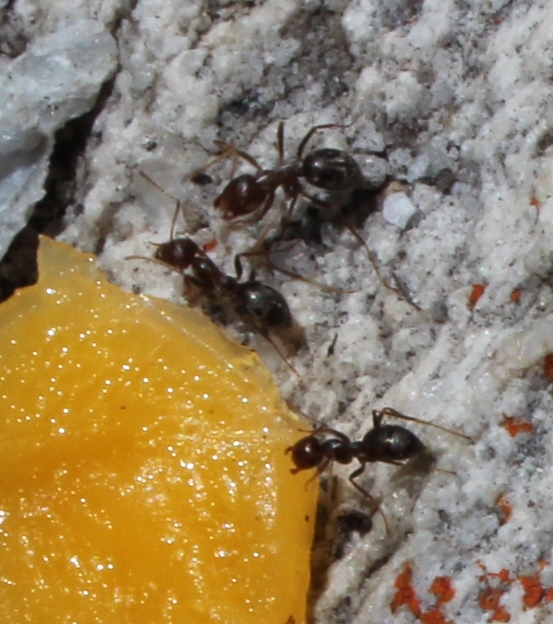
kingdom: Animalia
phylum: Arthropoda
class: Insecta
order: Hymenoptera
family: Formicidae
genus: Anoplolepis
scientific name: Anoplolepis steingroeveri
